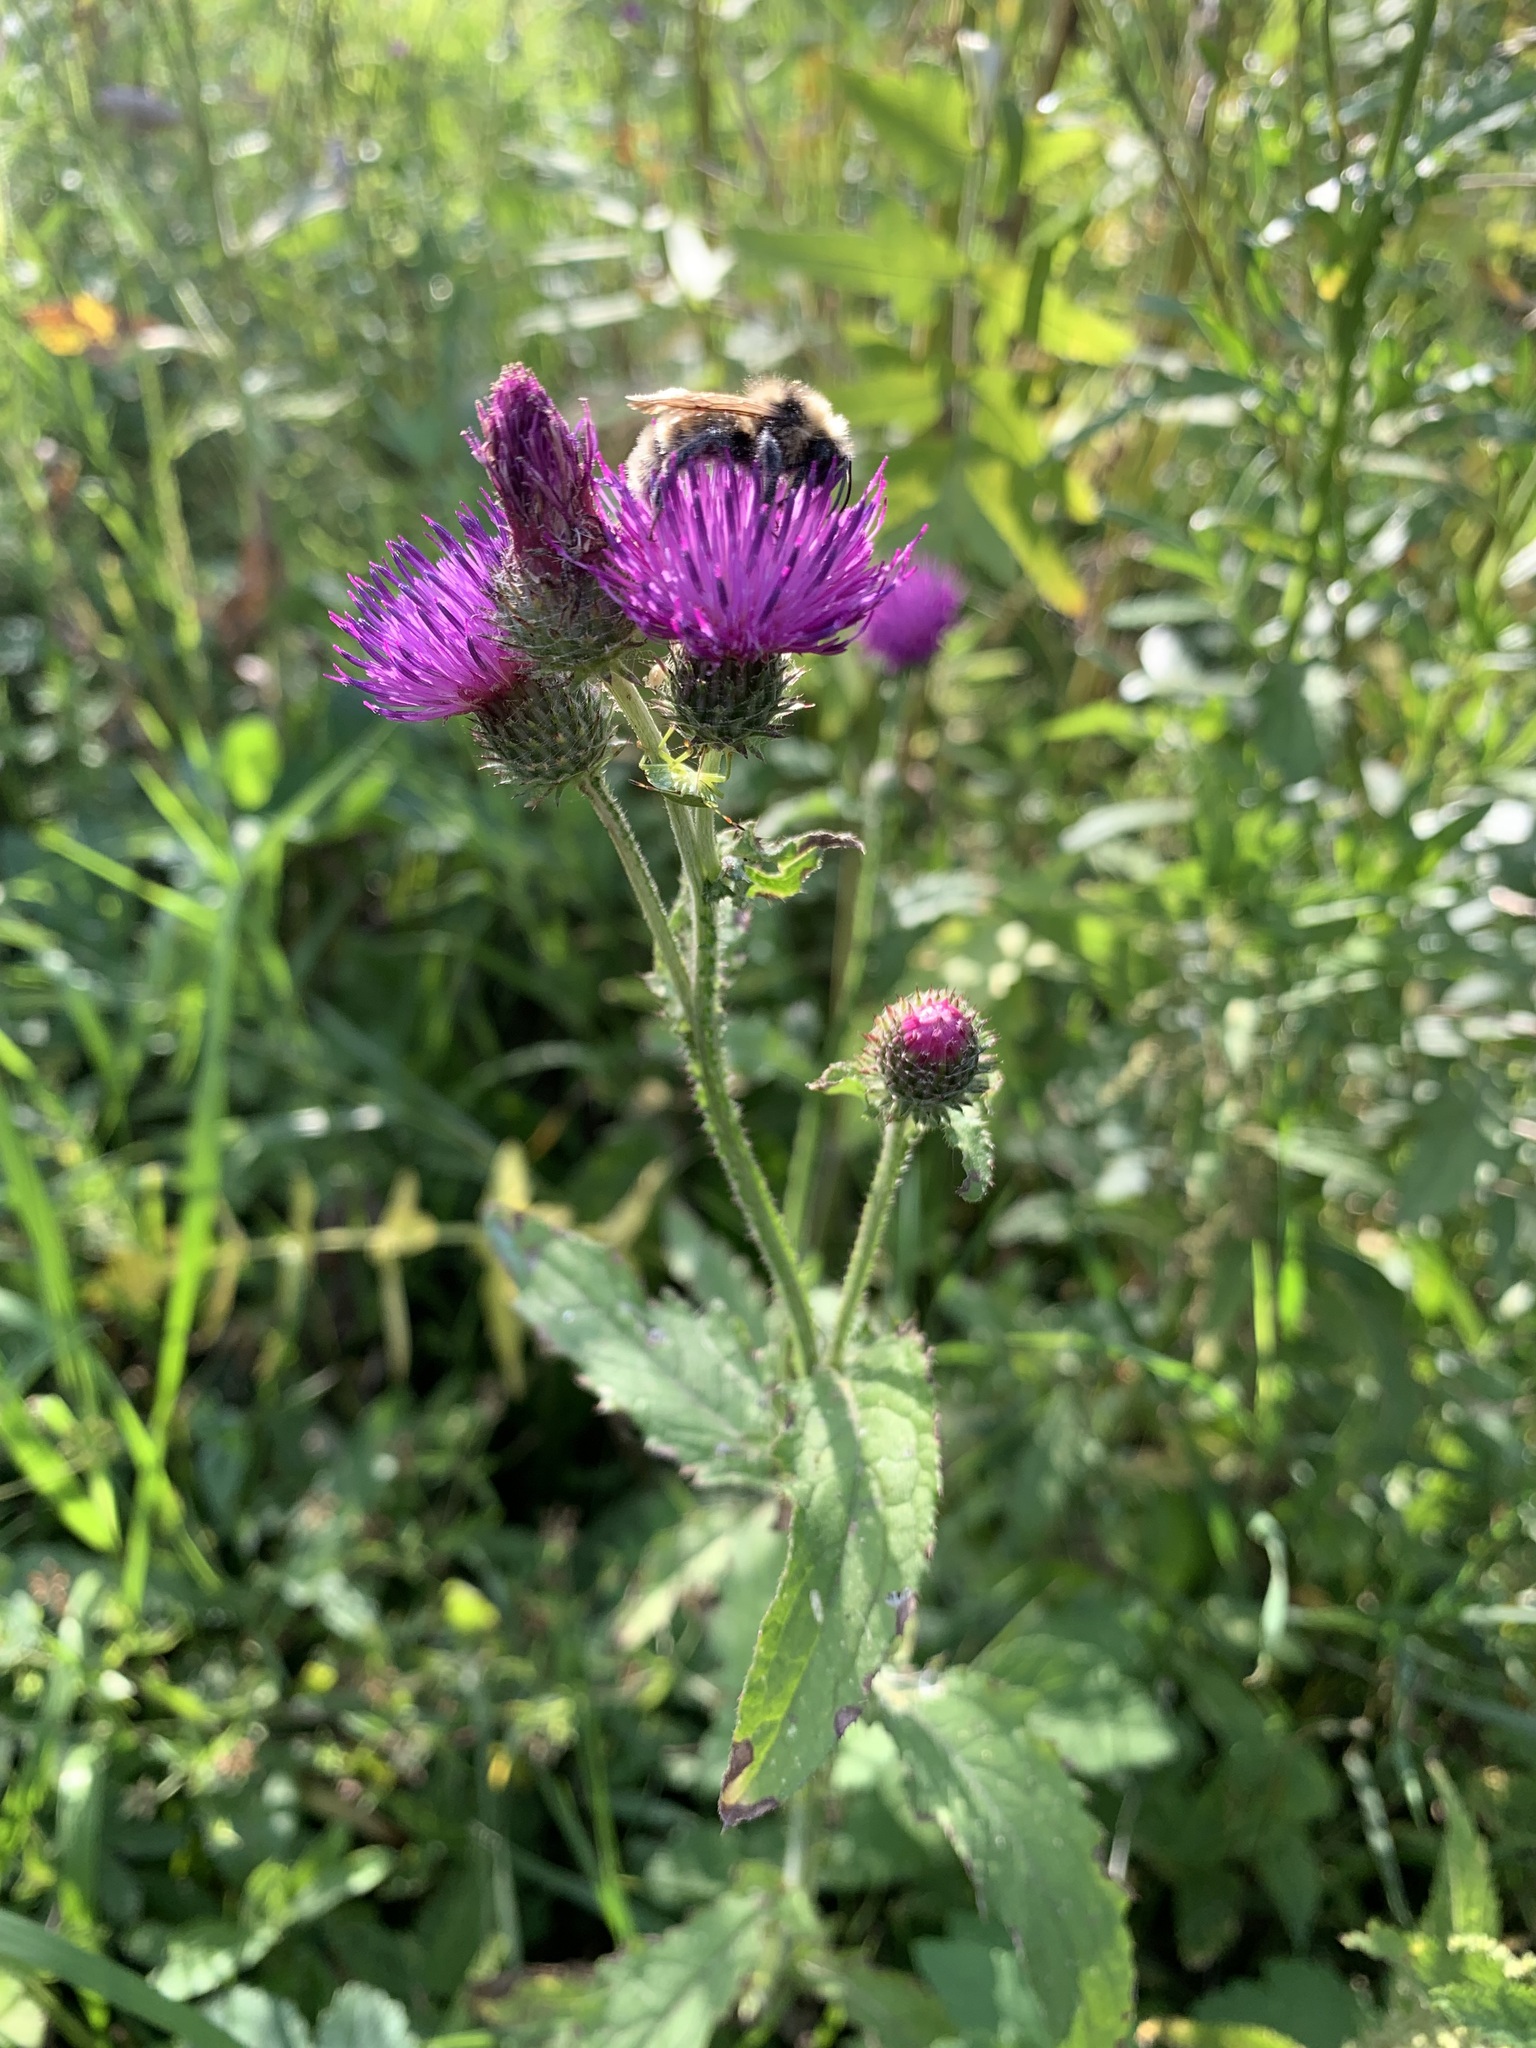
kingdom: Plantae
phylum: Tracheophyta
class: Magnoliopsida
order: Asterales
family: Asteraceae
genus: Carduus
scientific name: Carduus crispus
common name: Welted thistle
